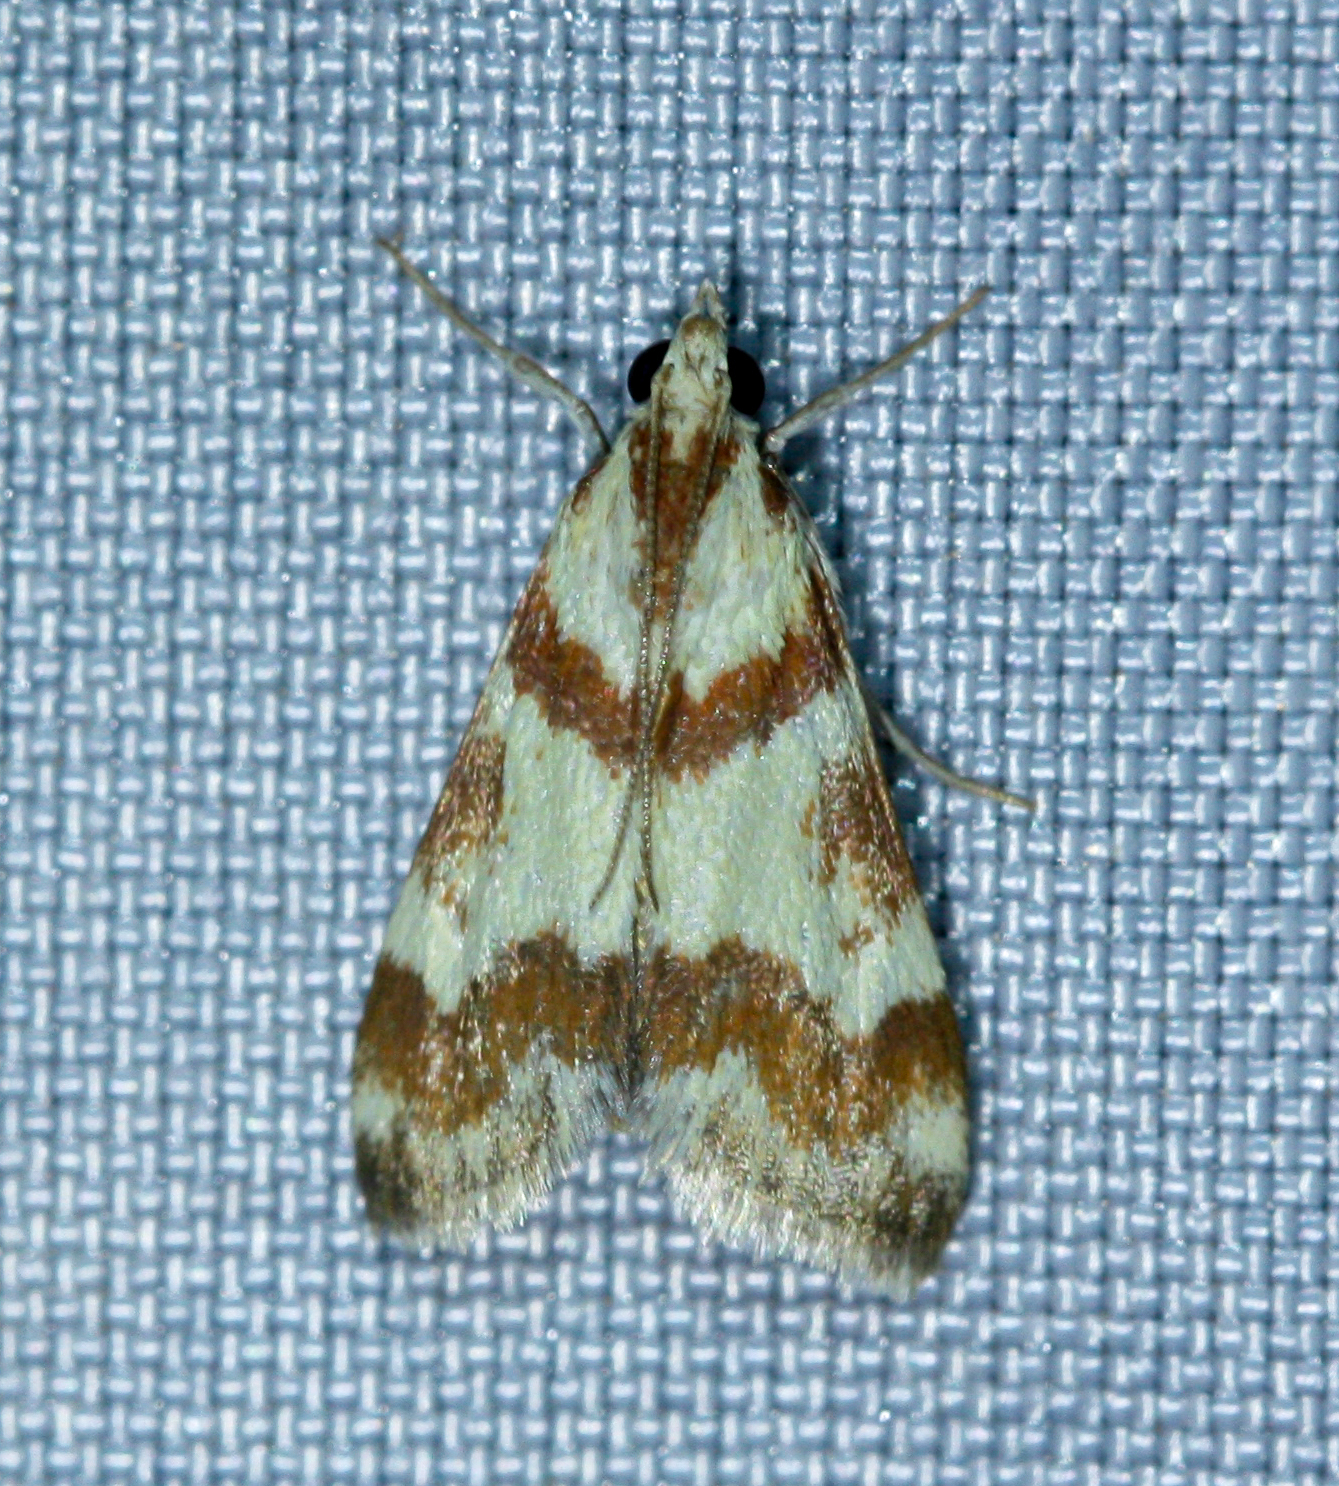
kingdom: Animalia
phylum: Arthropoda
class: Insecta
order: Lepidoptera
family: Crambidae
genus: Noctuelia
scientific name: Noctuelia Mimoschinia rufofascialis
